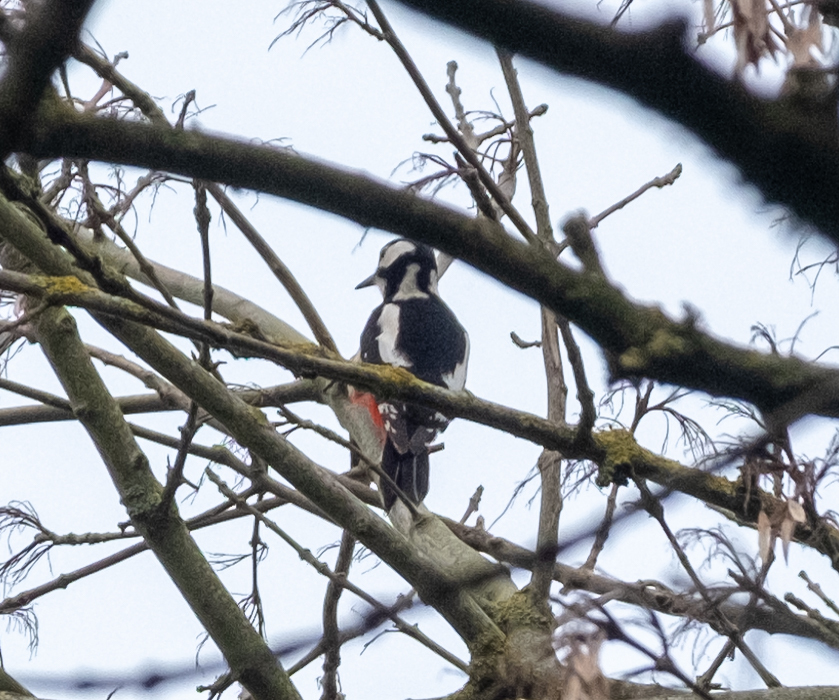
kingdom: Animalia
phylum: Chordata
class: Aves
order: Piciformes
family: Picidae
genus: Dendrocopos
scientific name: Dendrocopos major
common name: Great spotted woodpecker
